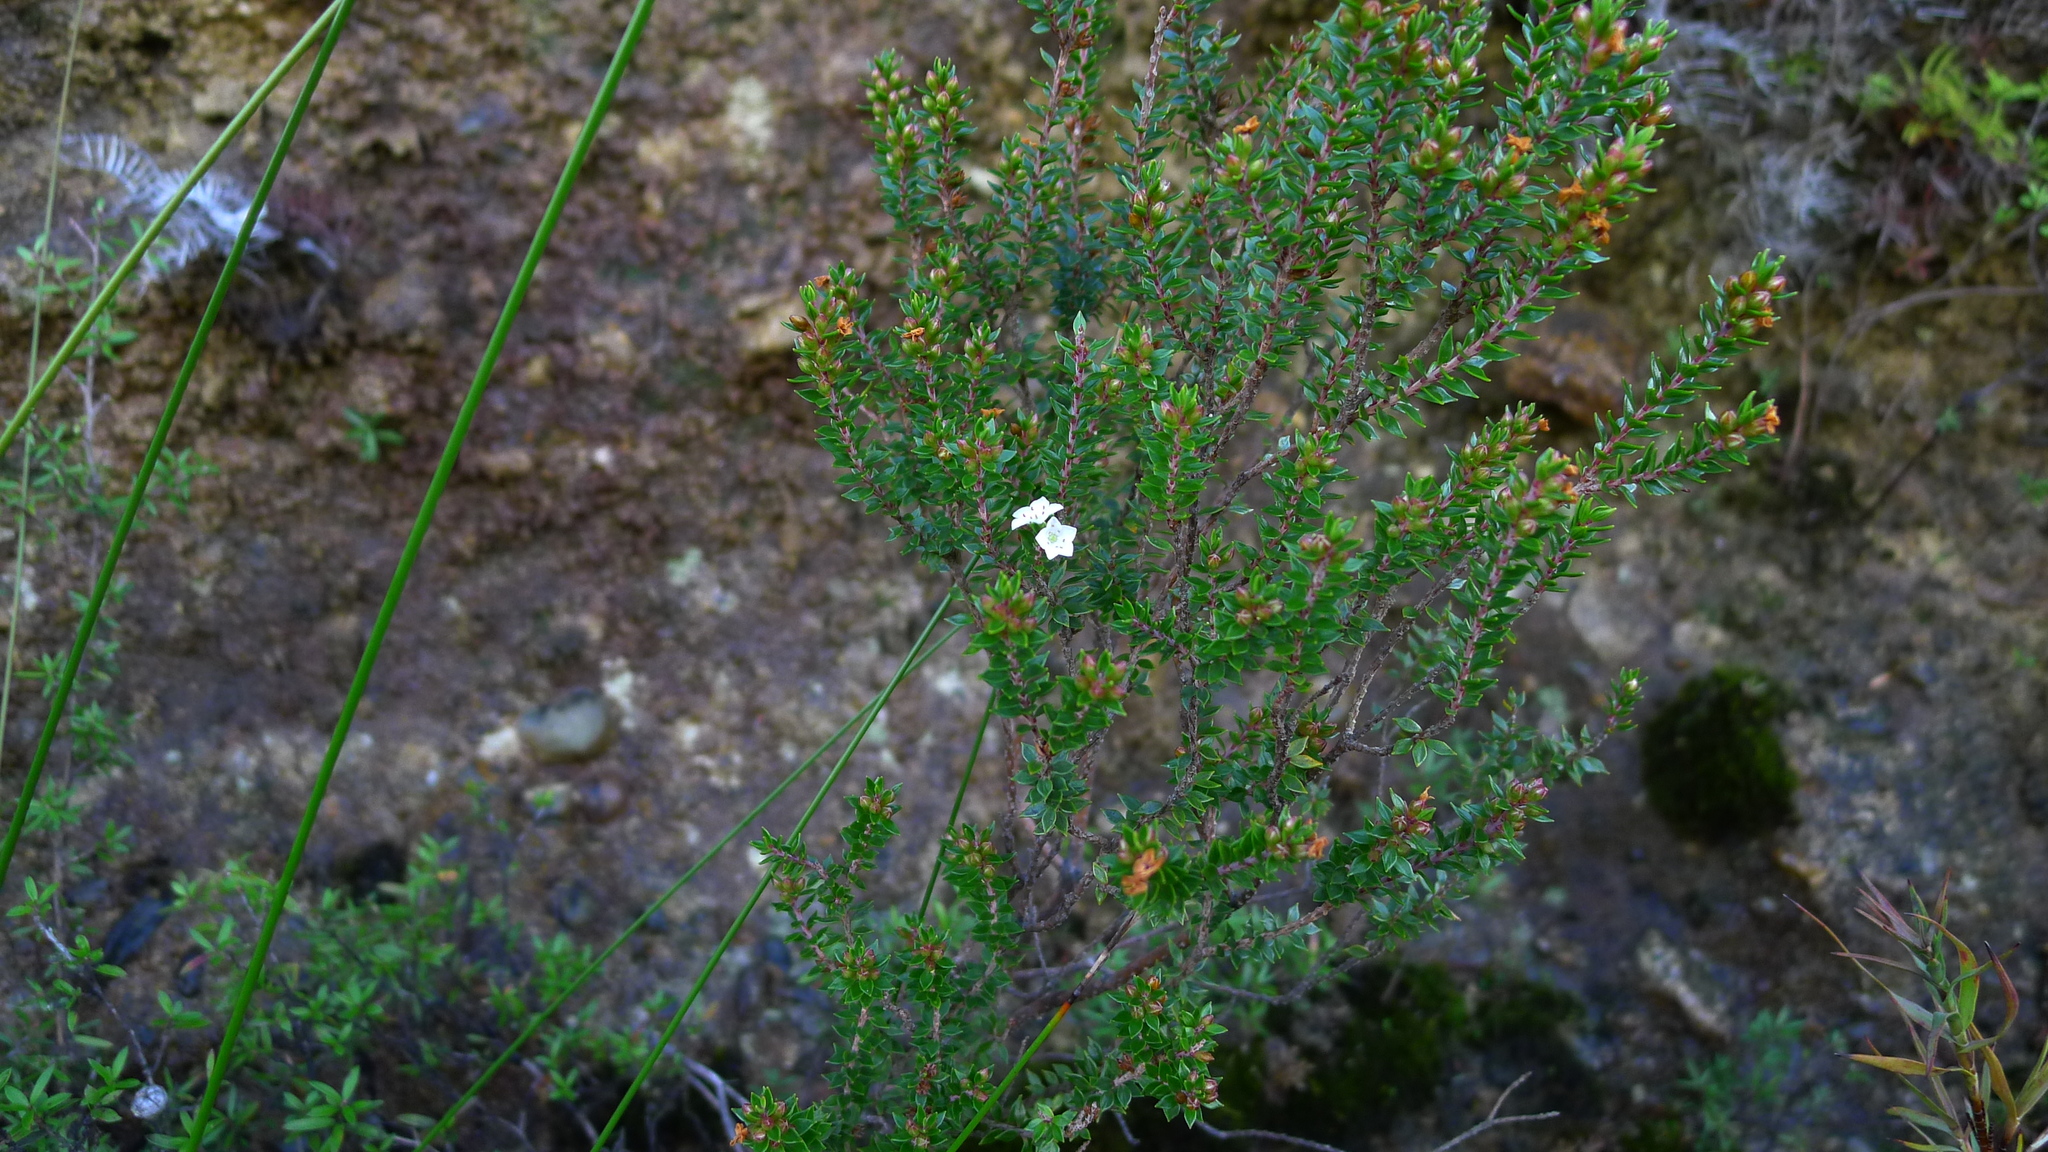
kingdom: Plantae
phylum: Tracheophyta
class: Magnoliopsida
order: Ericales
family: Ericaceae
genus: Epacris
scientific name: Epacris pauciflora
